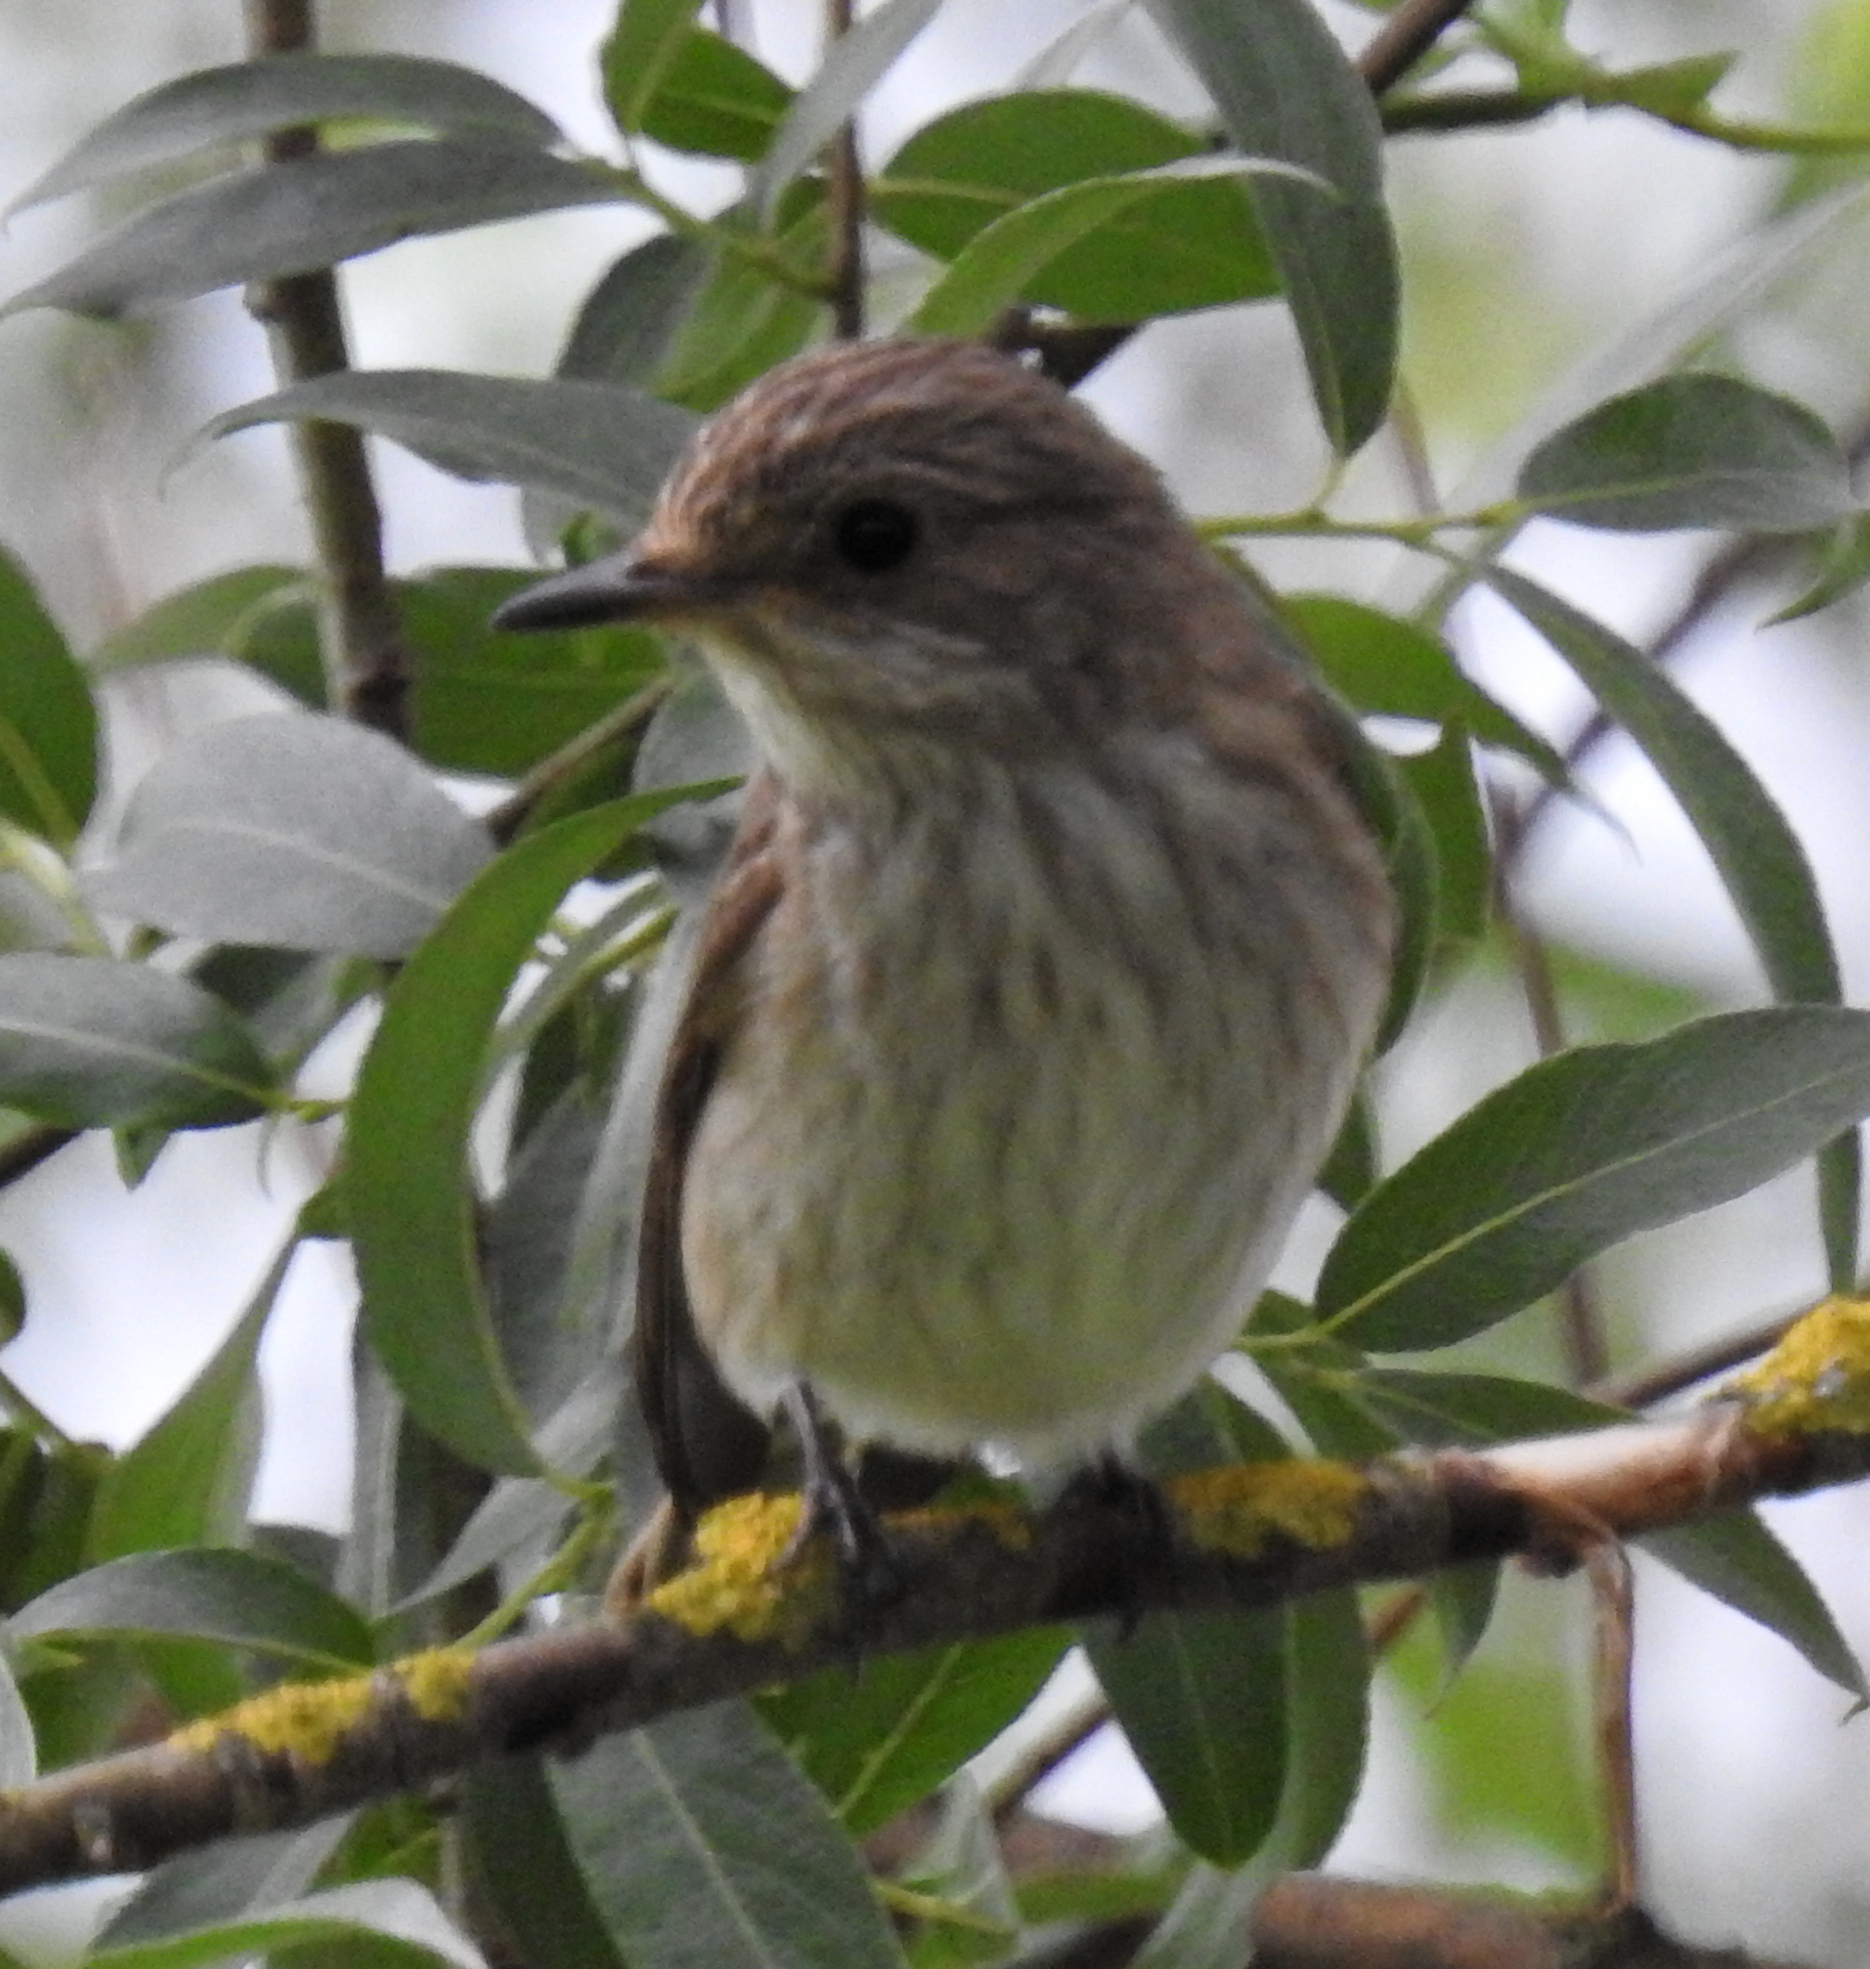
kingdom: Animalia
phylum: Chordata
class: Aves
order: Passeriformes
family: Muscicapidae
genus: Muscicapa
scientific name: Muscicapa striata
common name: Spotted flycatcher
